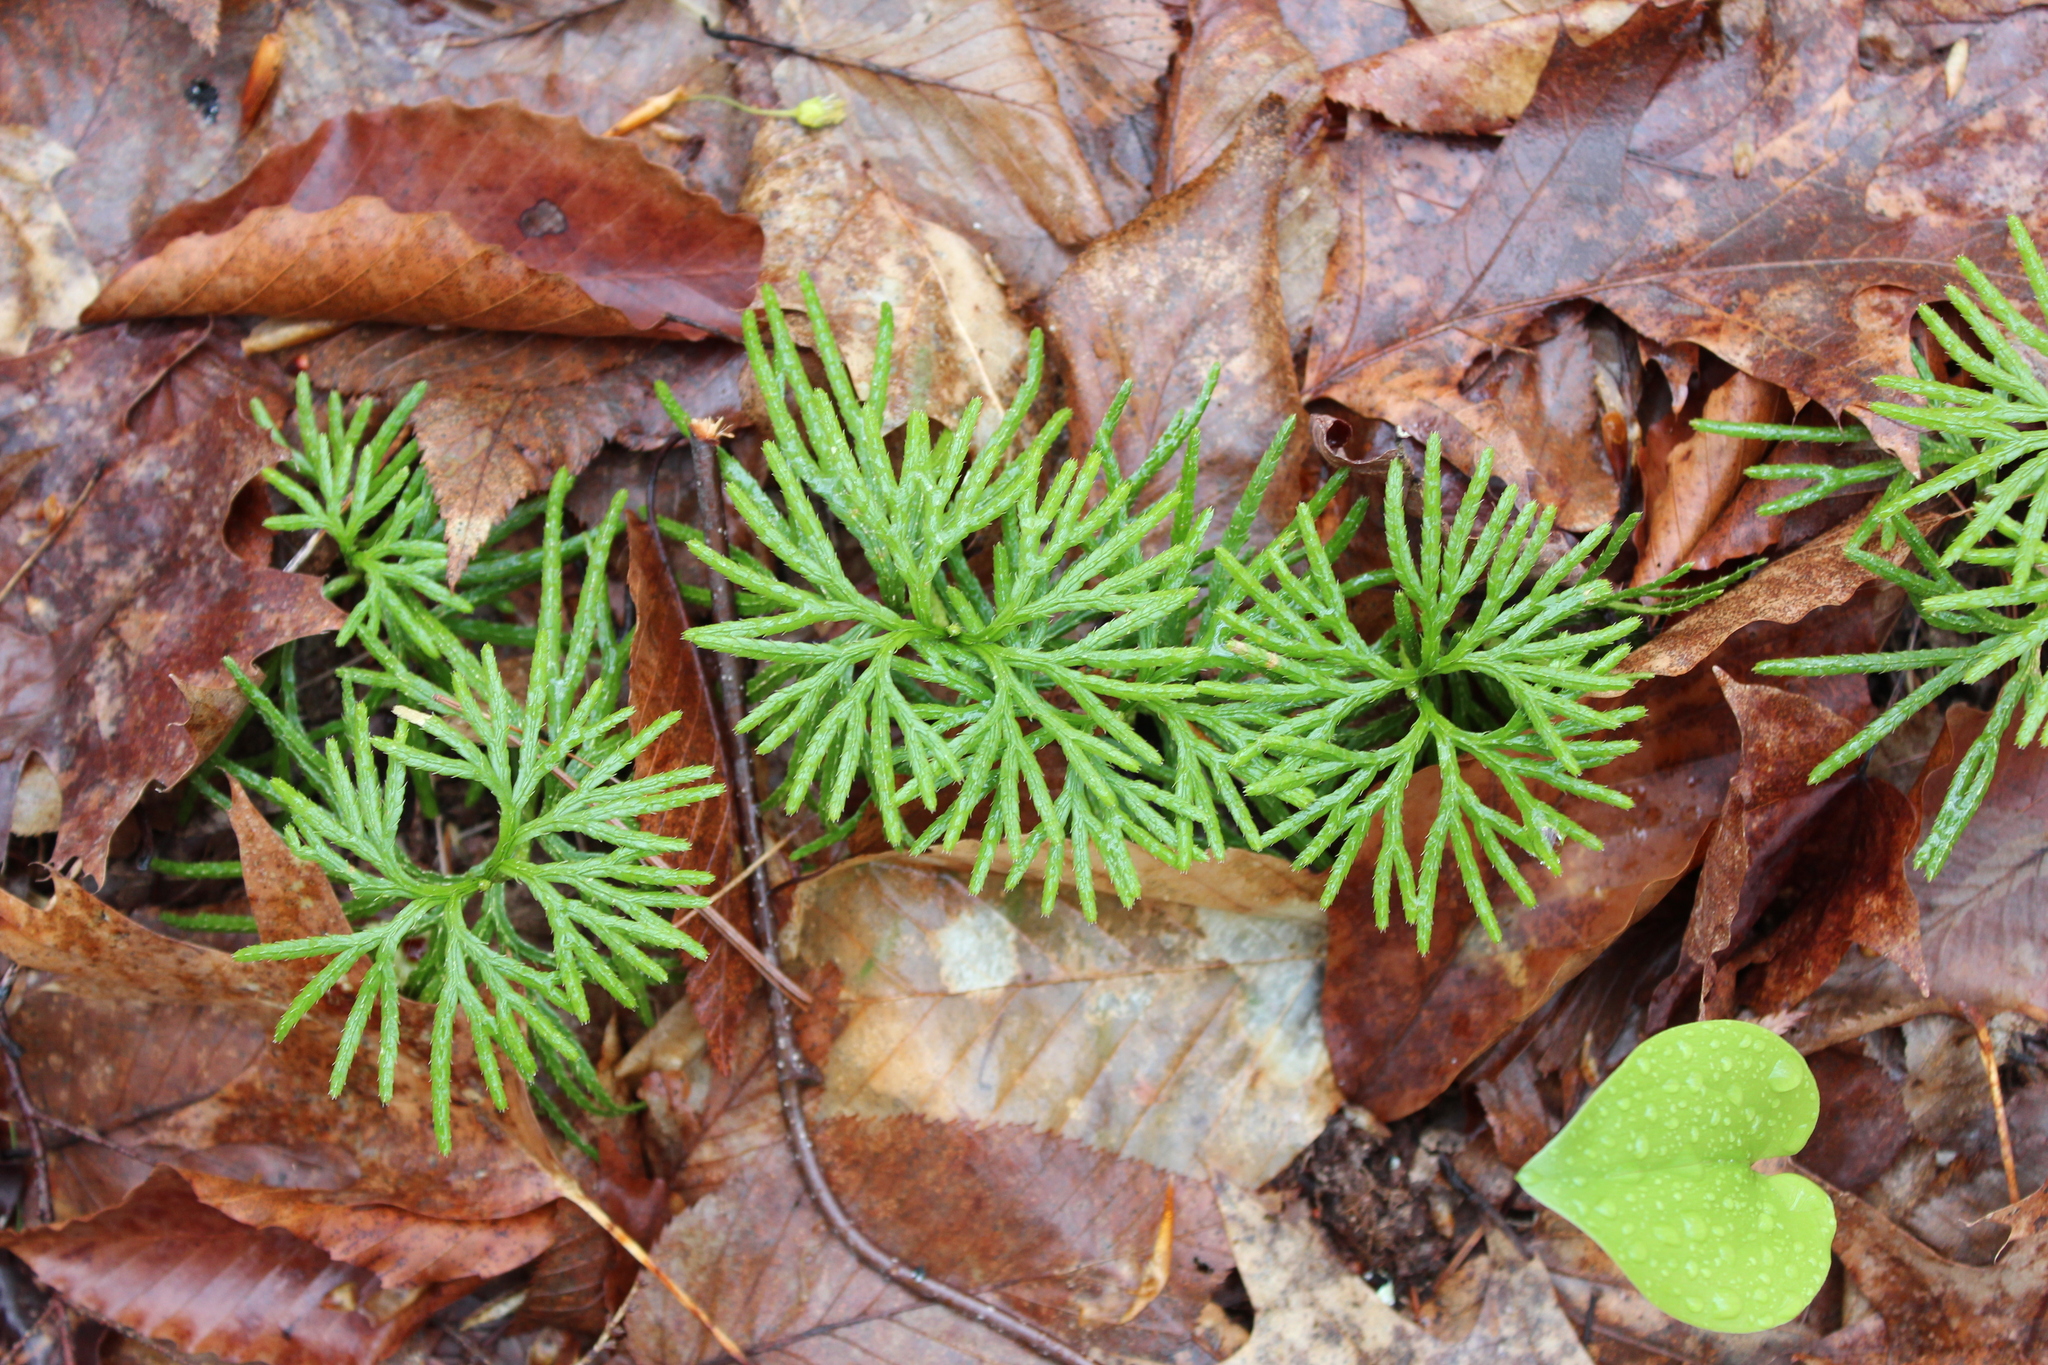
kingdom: Plantae
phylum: Tracheophyta
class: Lycopodiopsida
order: Lycopodiales
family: Lycopodiaceae
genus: Diphasiastrum
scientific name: Diphasiastrum digitatum
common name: Southern running-pine
